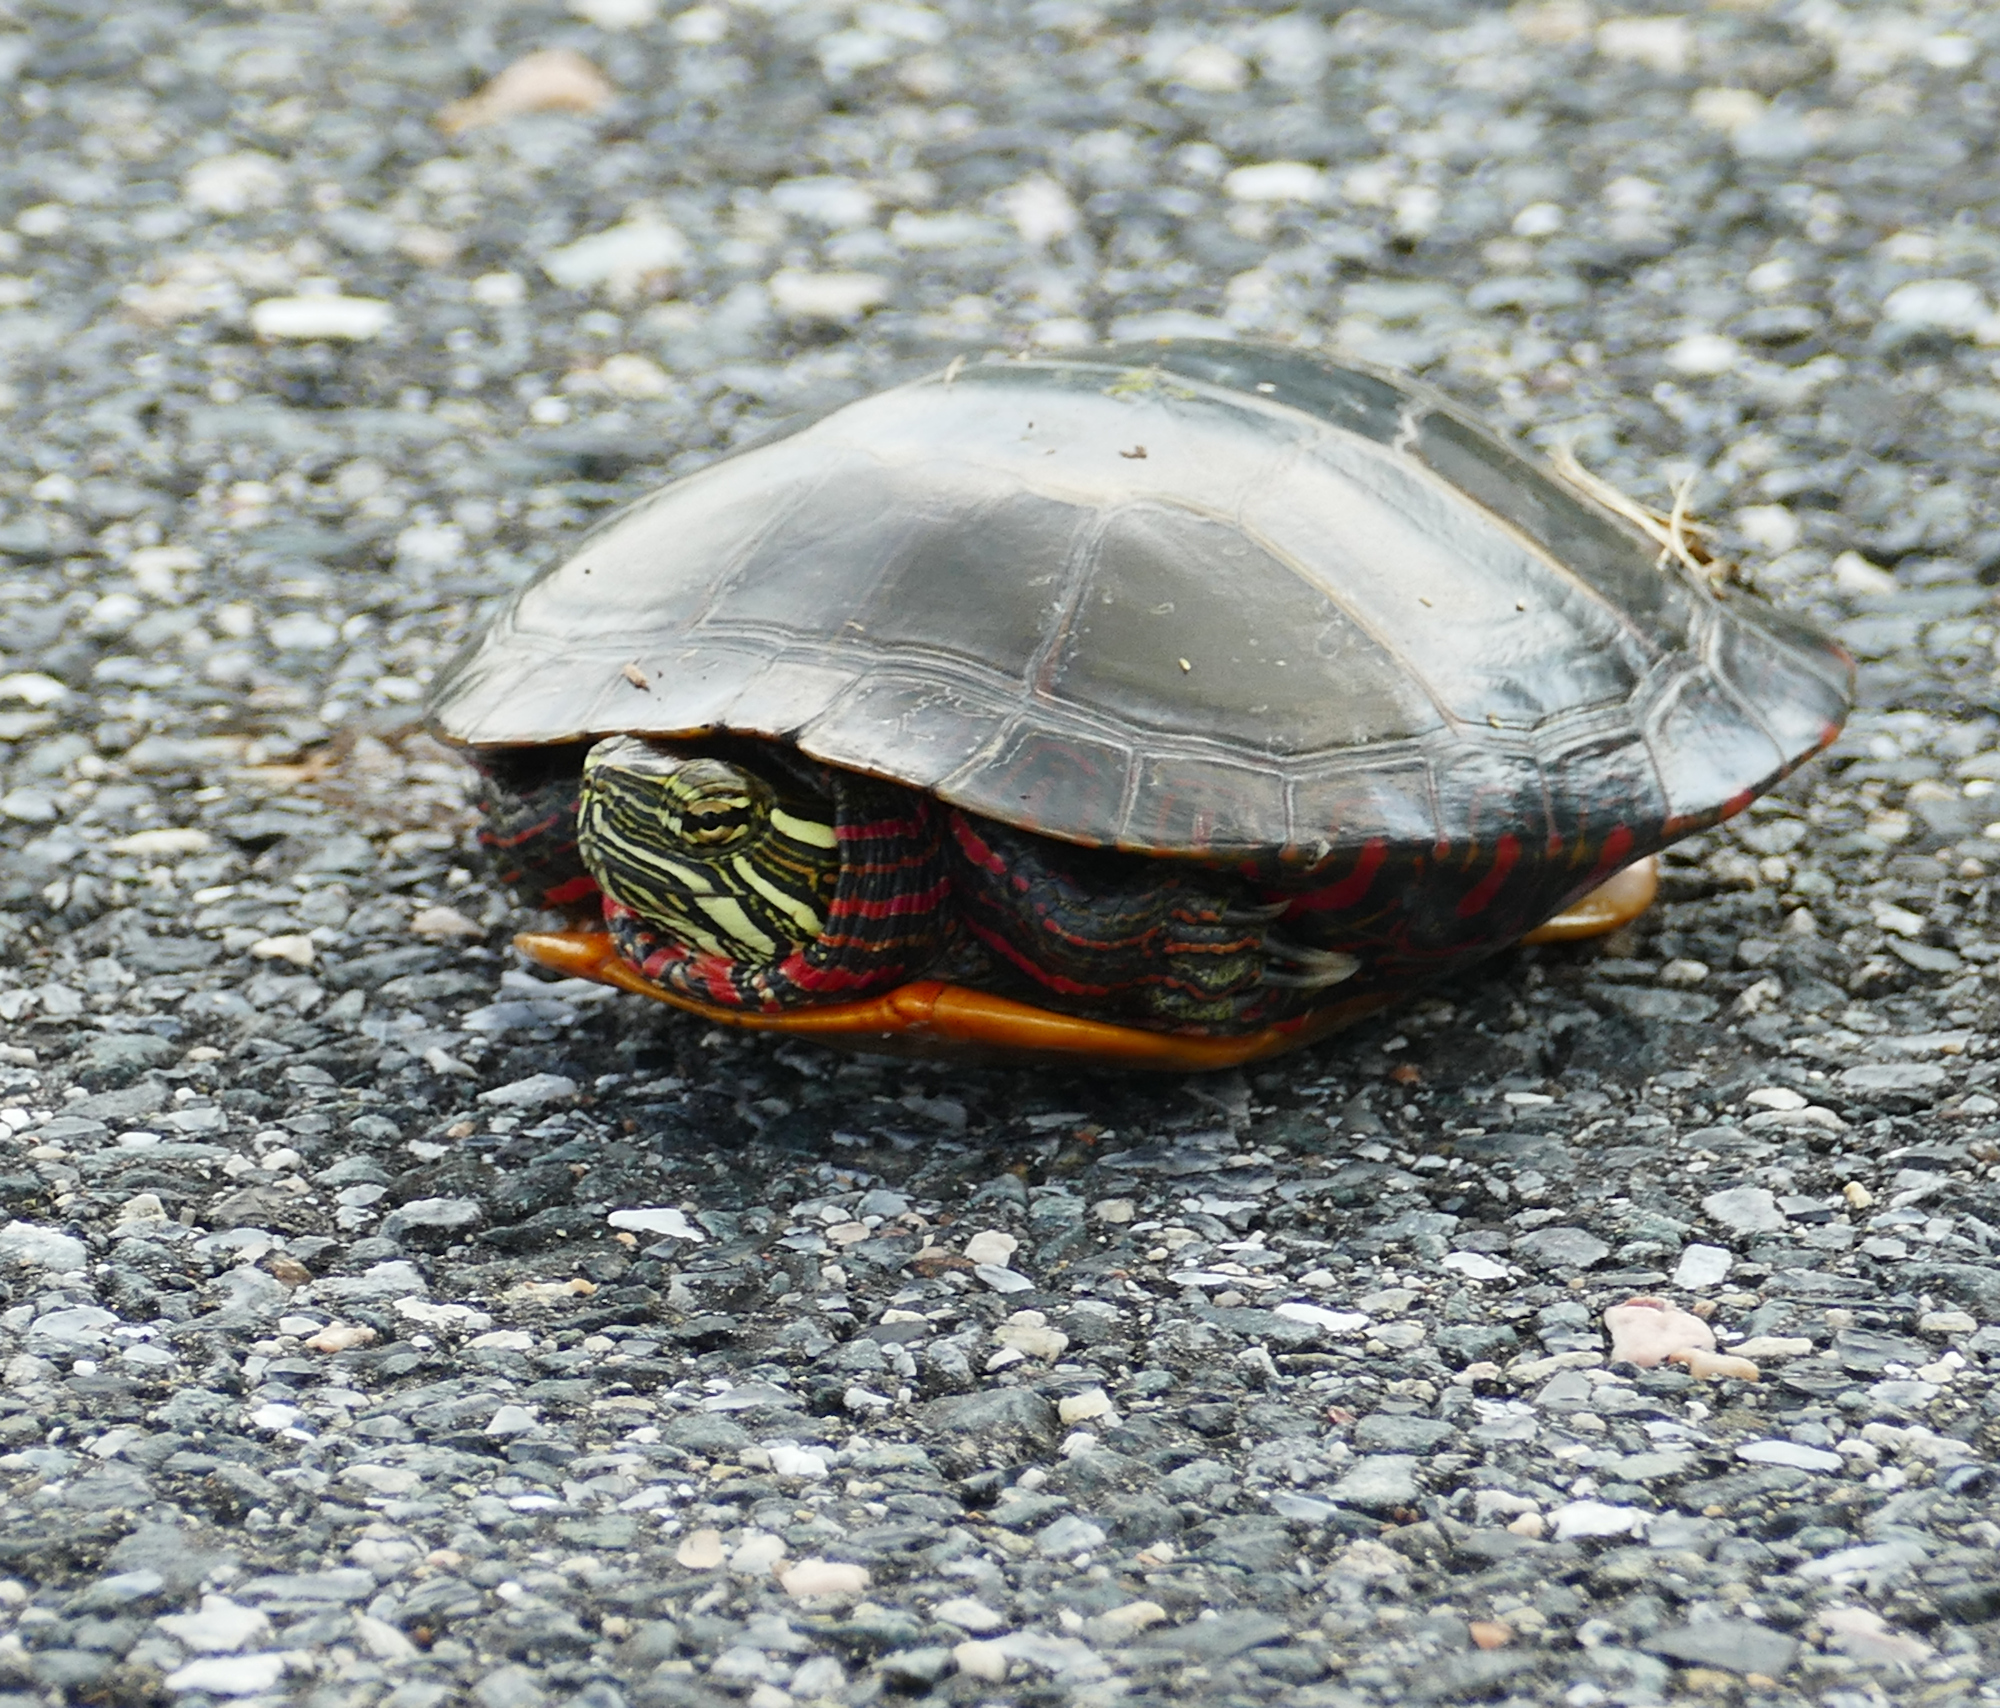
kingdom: Animalia
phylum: Chordata
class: Testudines
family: Emydidae
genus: Chrysemys
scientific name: Chrysemys picta
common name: Painted turtle
